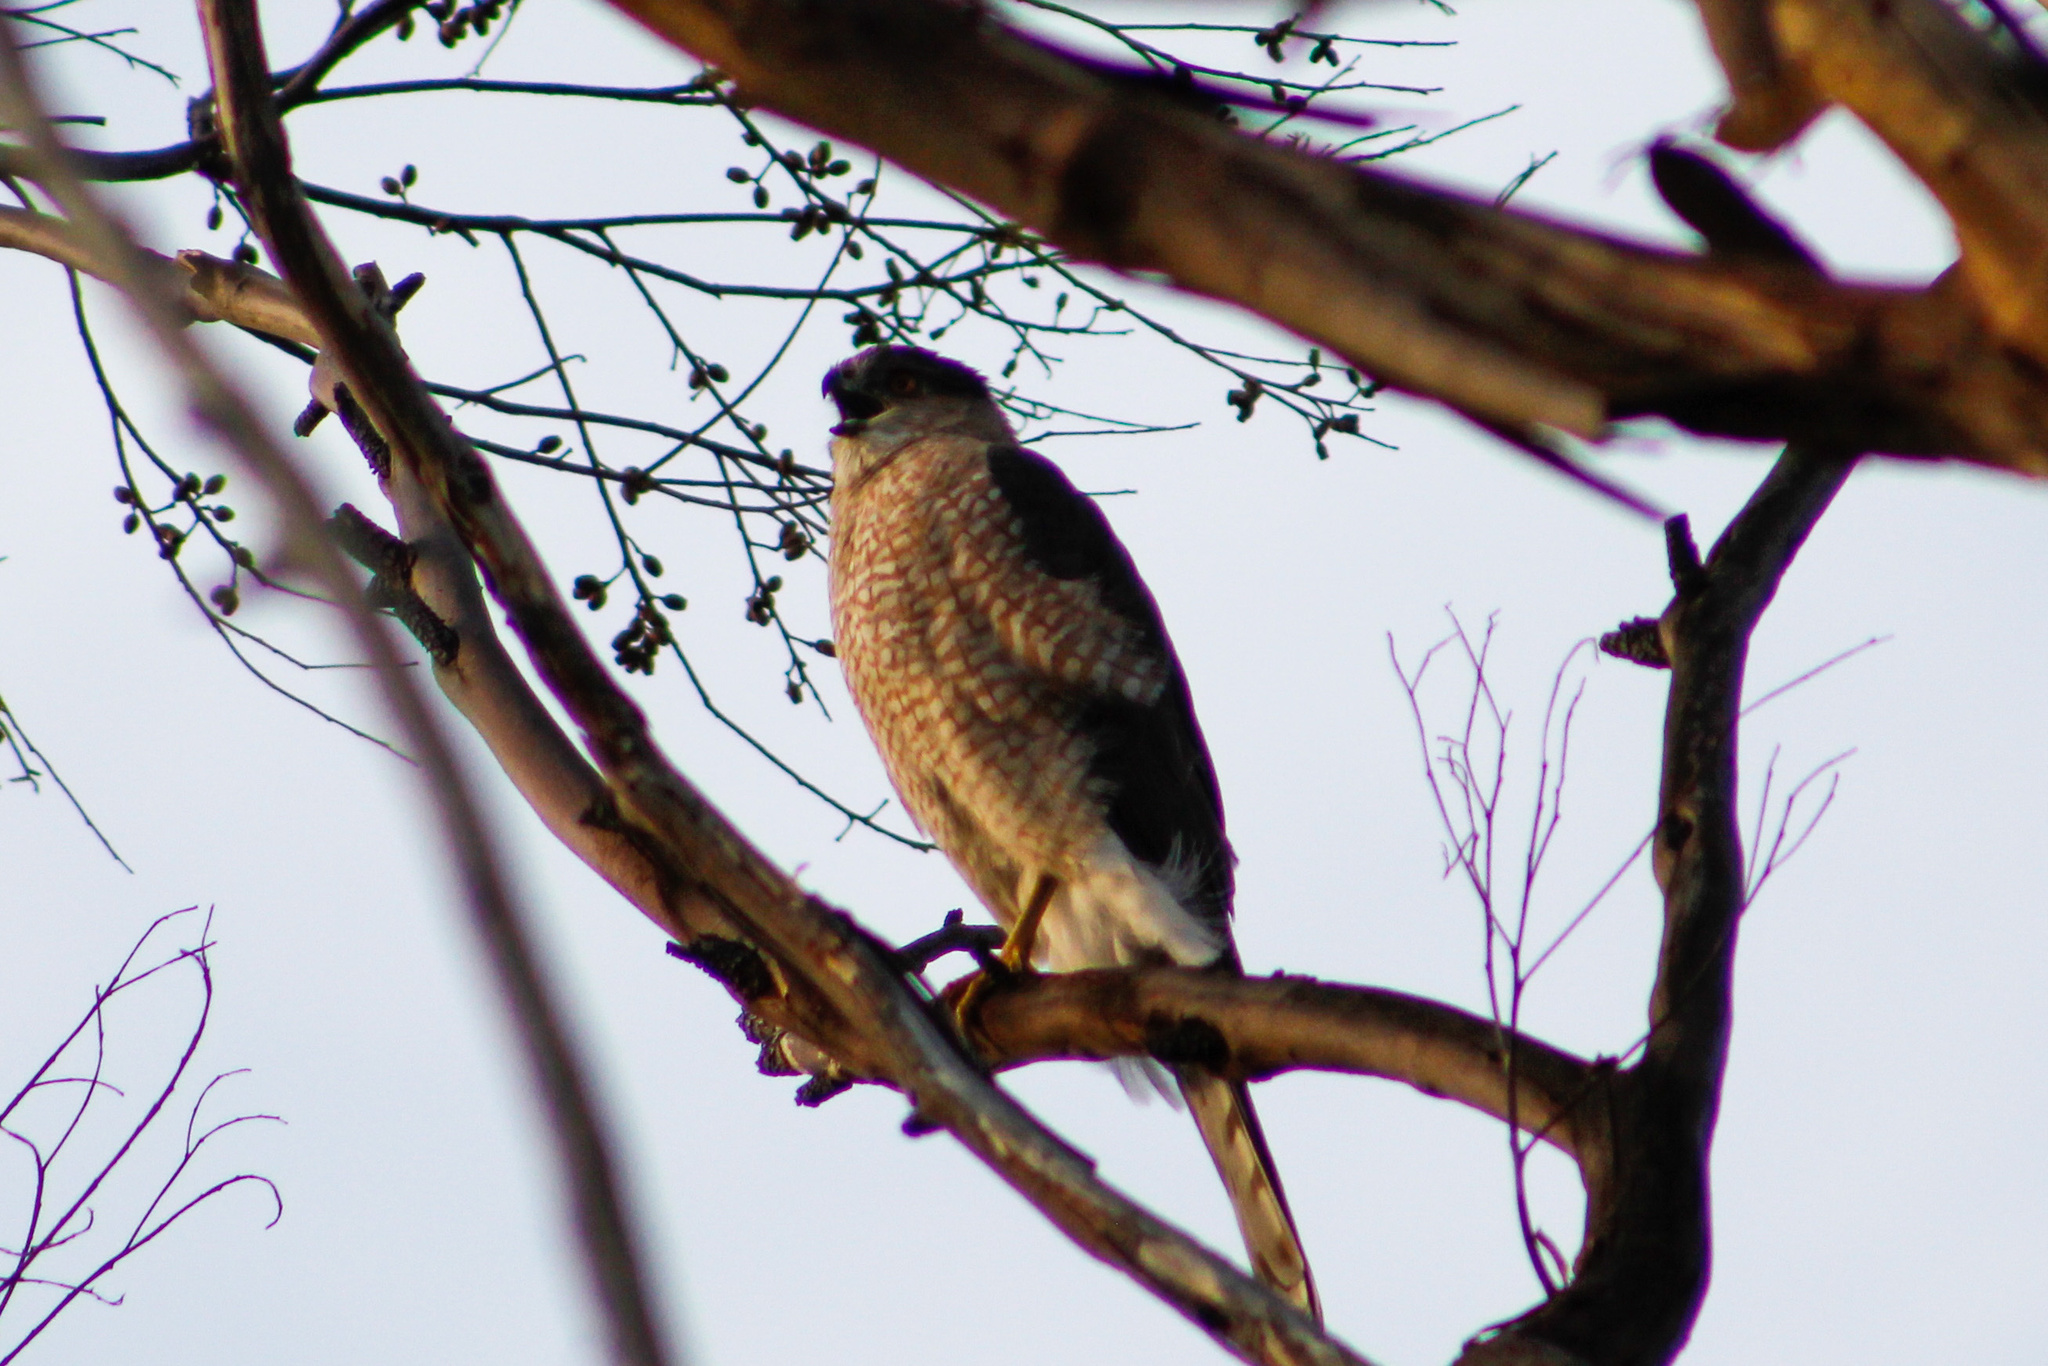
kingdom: Animalia
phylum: Chordata
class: Aves
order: Accipitriformes
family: Accipitridae
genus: Accipiter
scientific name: Accipiter cooperii
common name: Cooper's hawk
